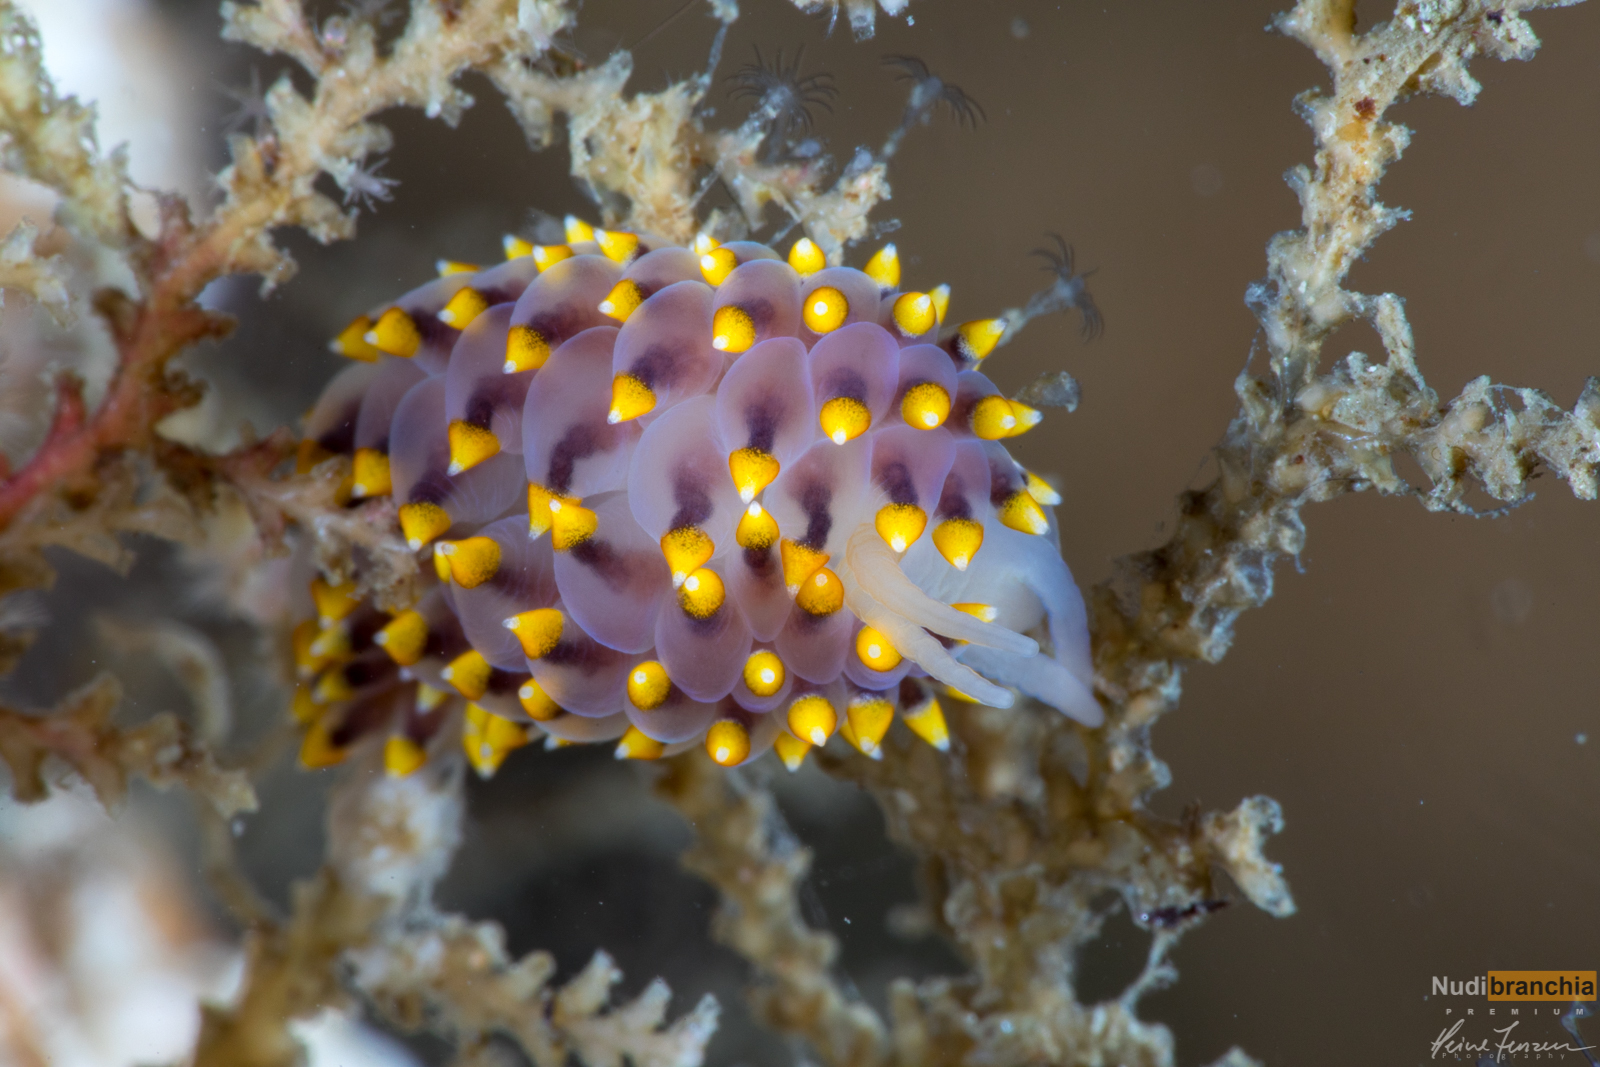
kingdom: Animalia
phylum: Mollusca
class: Gastropoda
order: Nudibranchia
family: Eubranchidae
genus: Eubranchus
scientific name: Eubranchus tricolor
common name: Painted balloon aeolis
